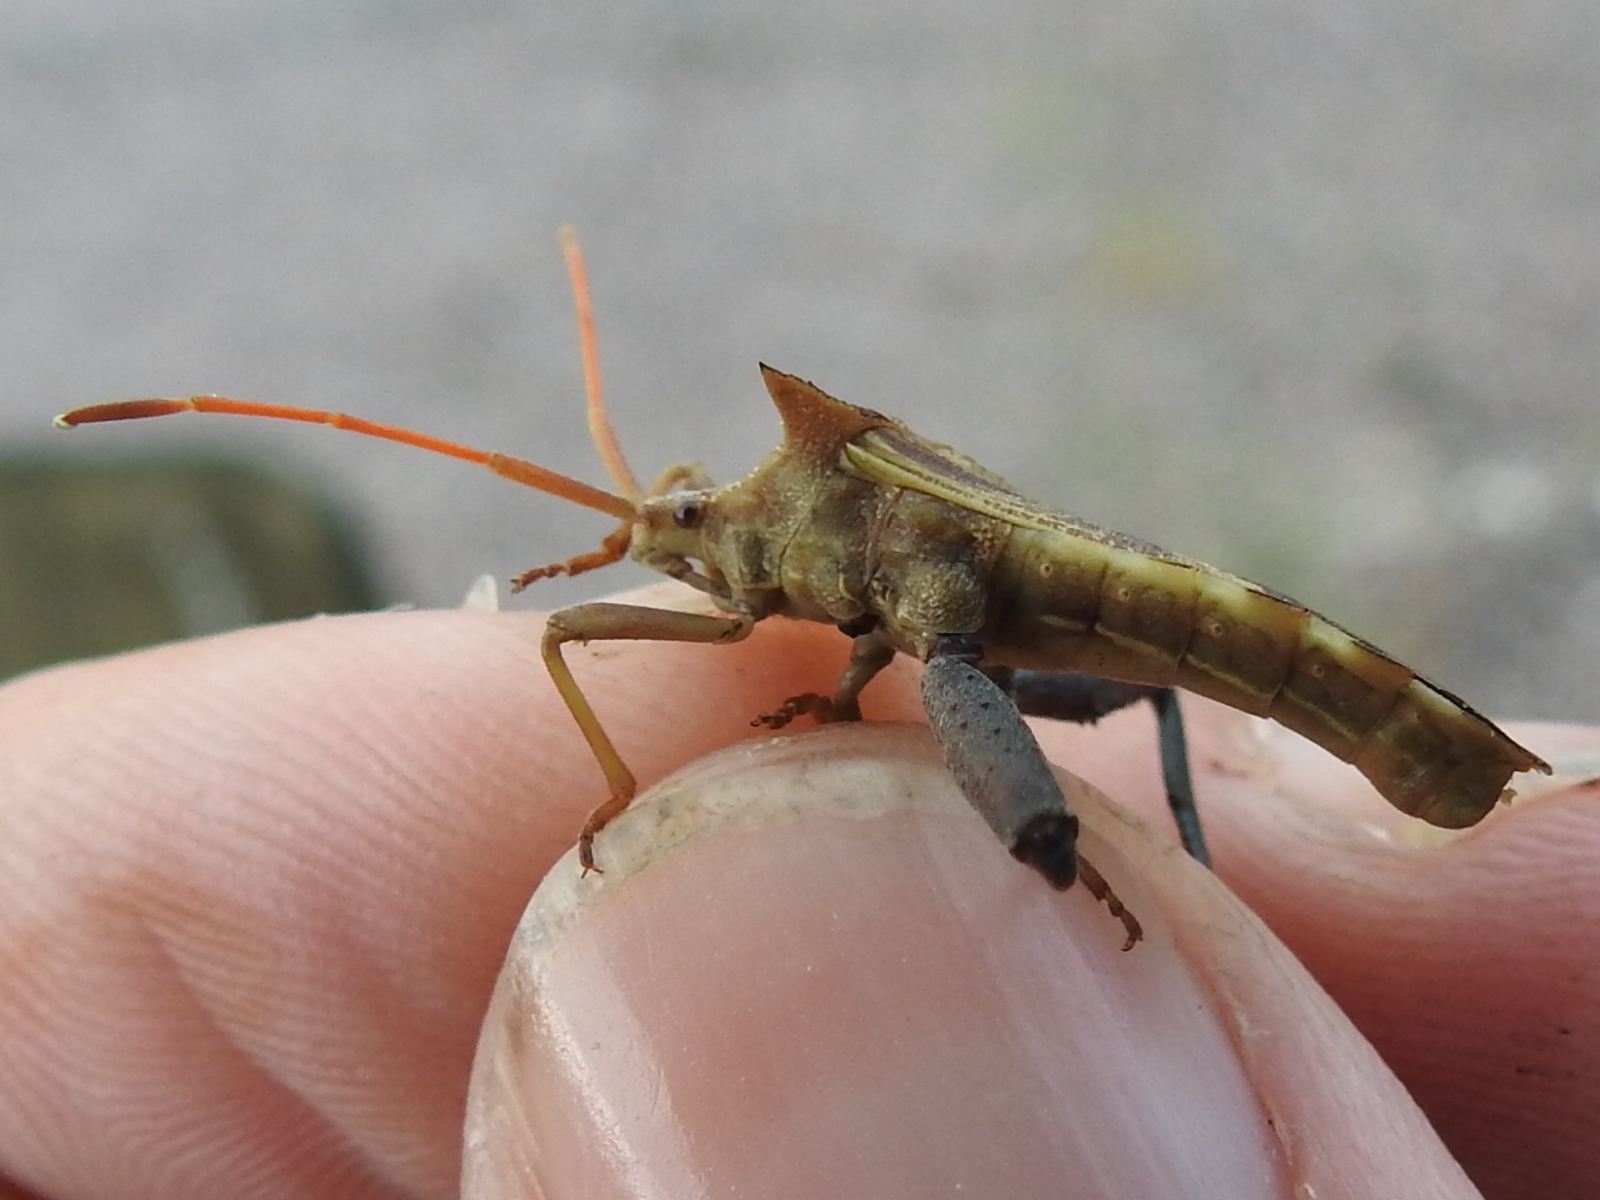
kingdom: Animalia
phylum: Arthropoda
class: Insecta
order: Hemiptera
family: Coreidae
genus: Mozena
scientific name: Mozena arizonensis
